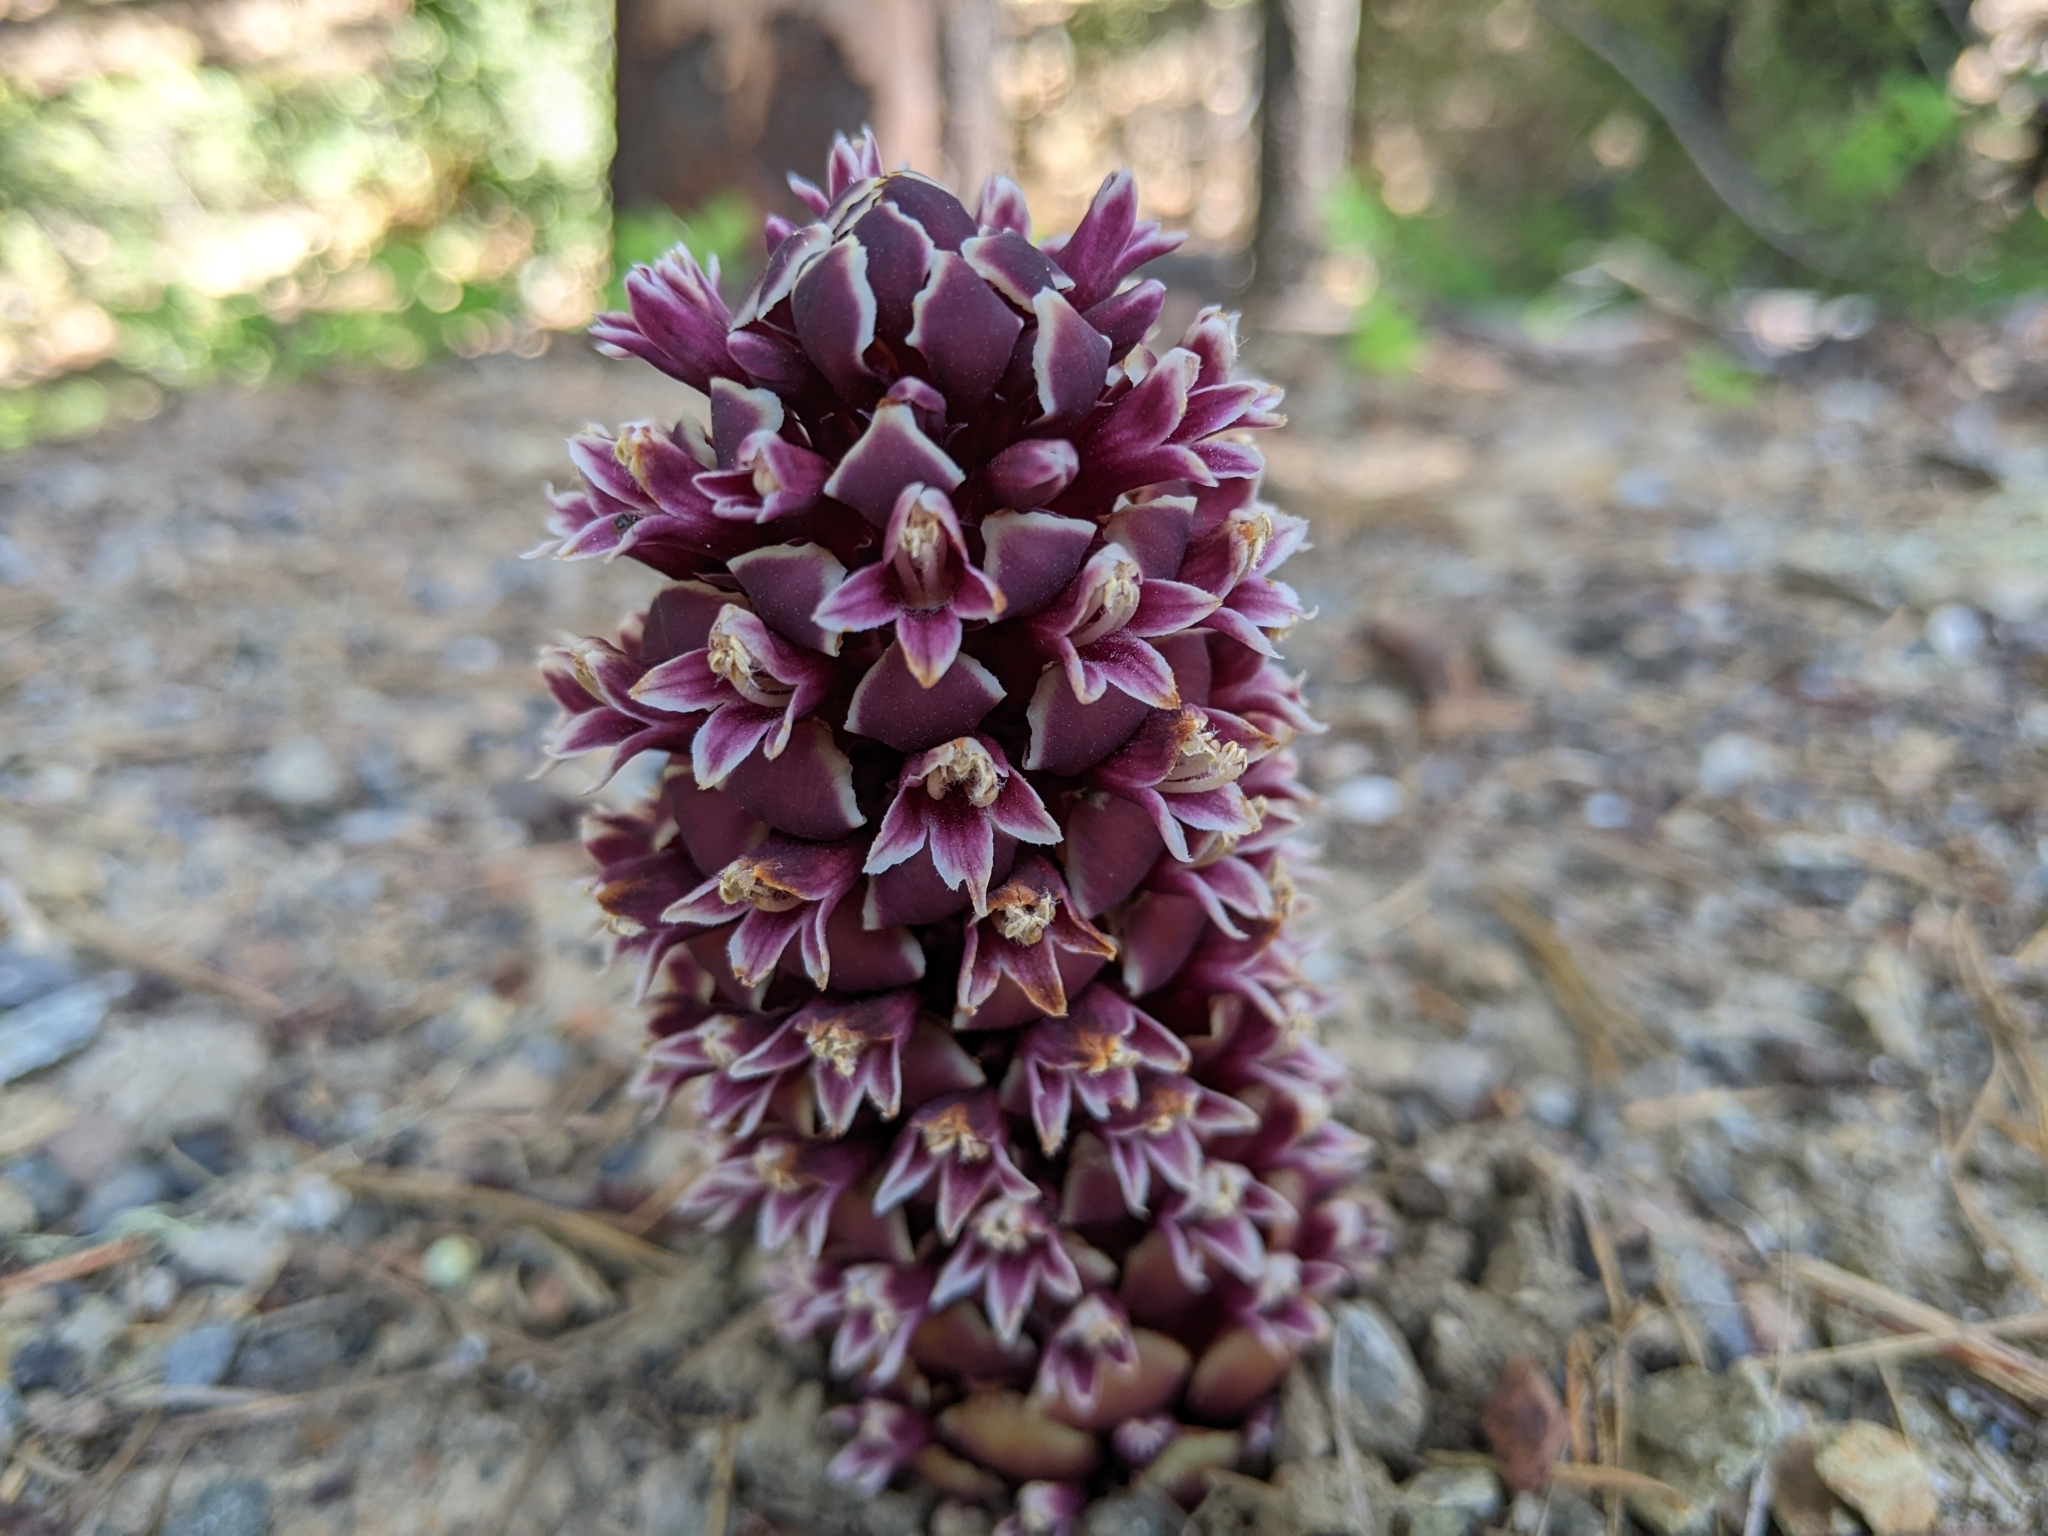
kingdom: Plantae
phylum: Tracheophyta
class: Magnoliopsida
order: Lamiales
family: Orobanchaceae
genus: Kopsiopsis
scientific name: Kopsiopsis strobilacea
